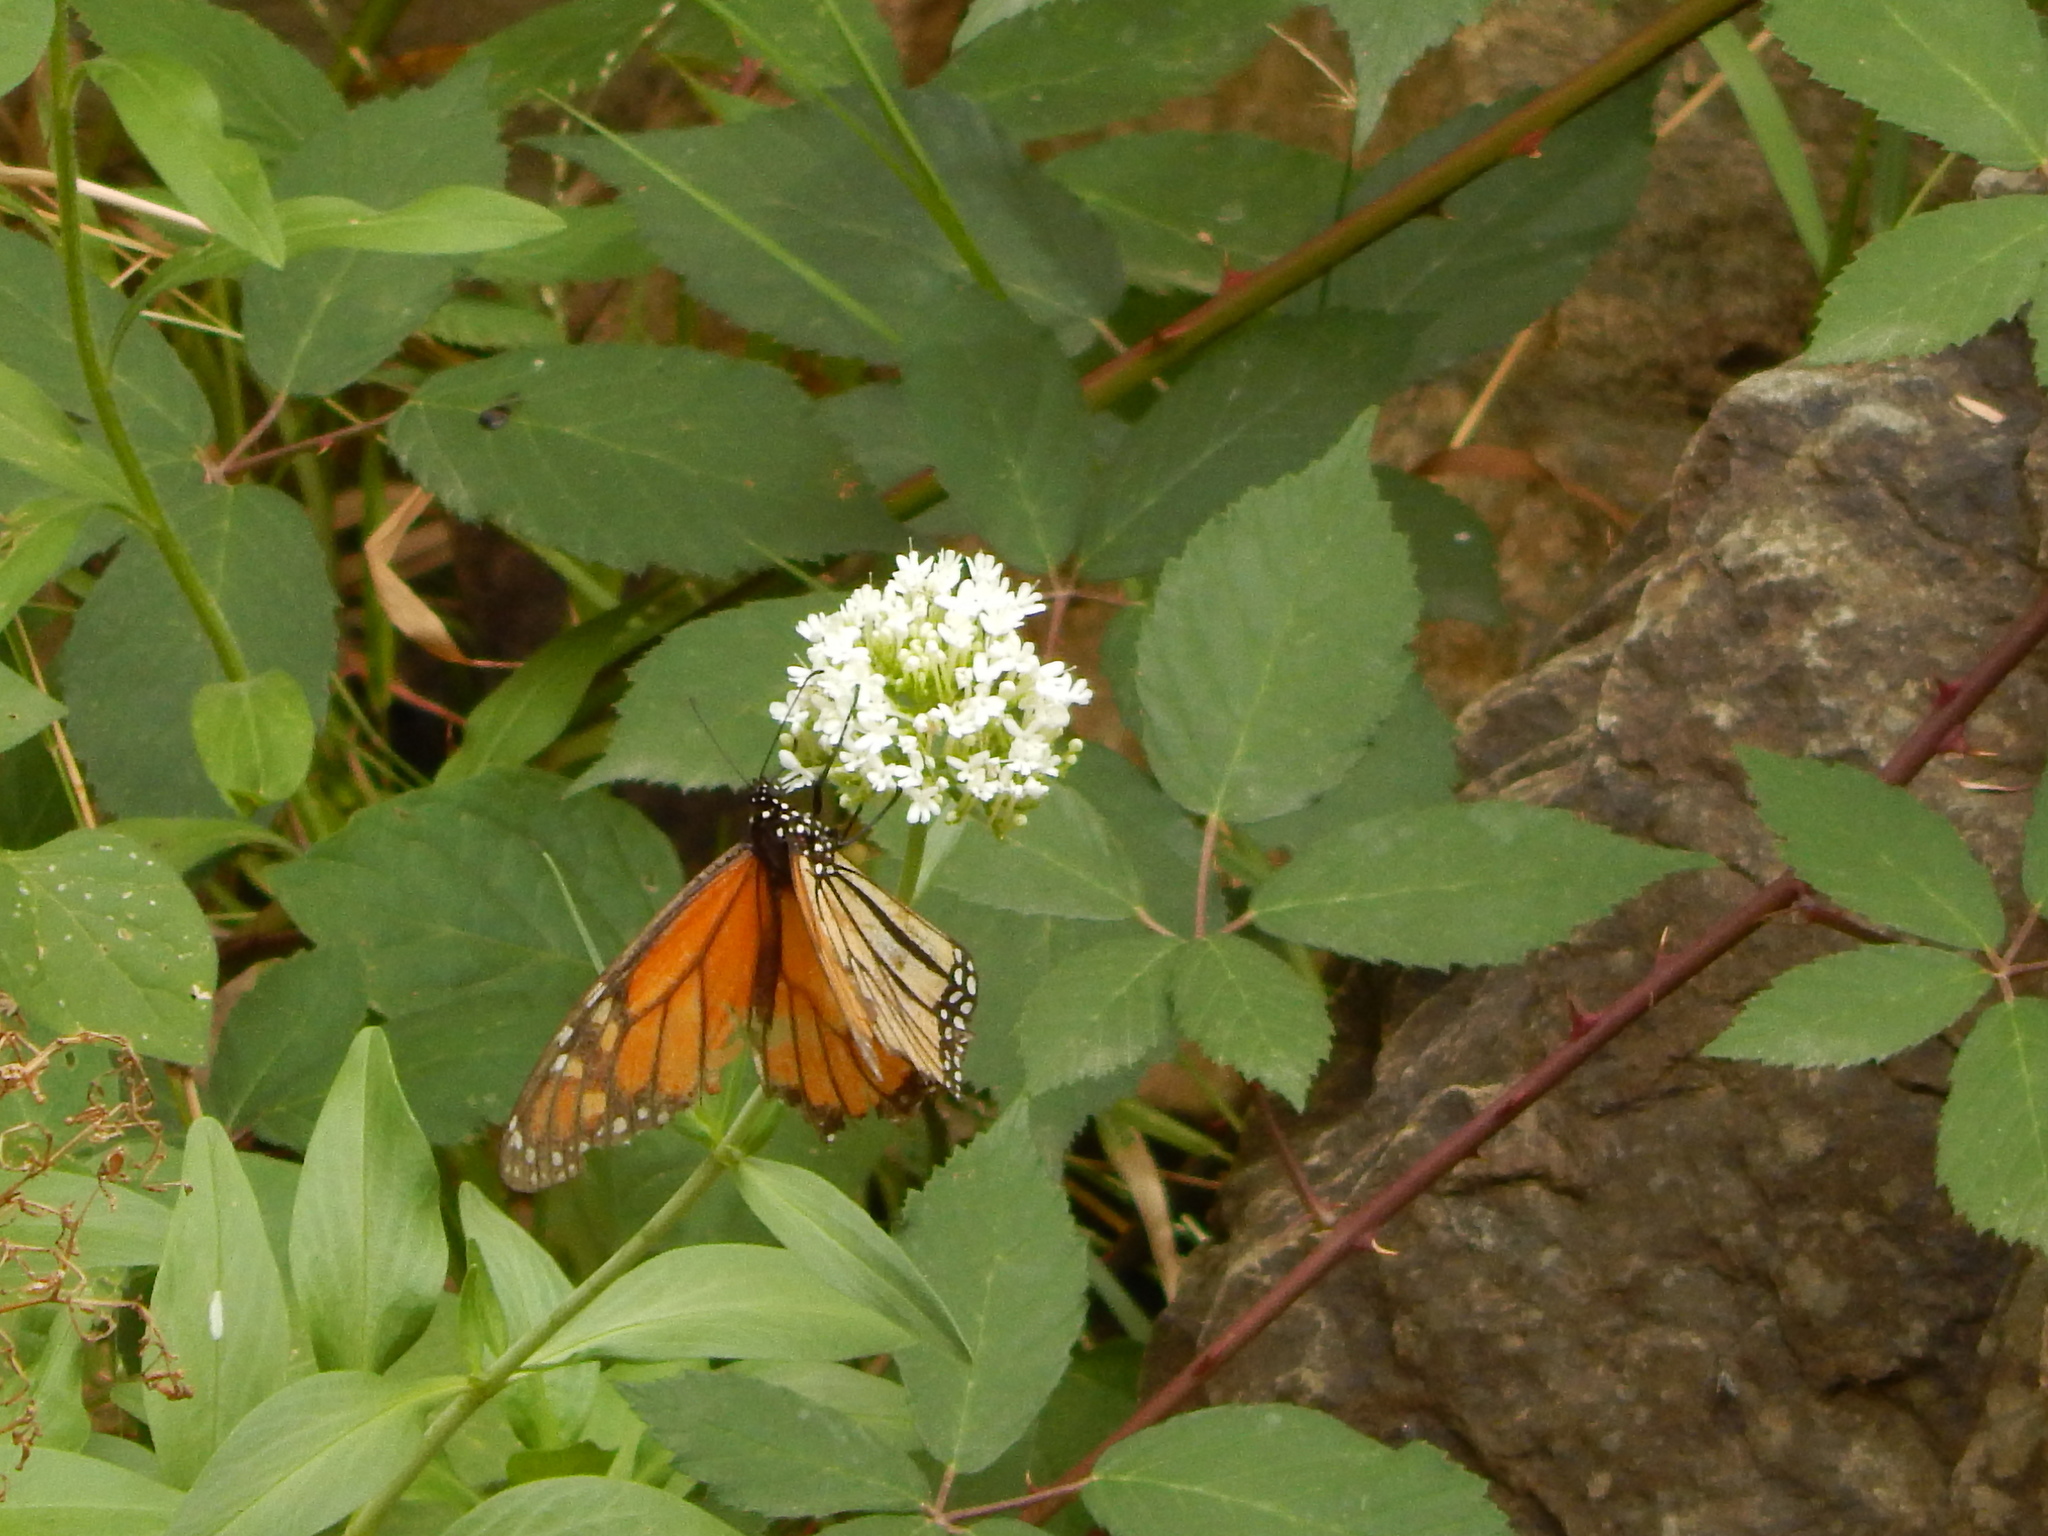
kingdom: Animalia
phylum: Arthropoda
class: Insecta
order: Lepidoptera
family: Nymphalidae
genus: Danaus
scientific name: Danaus plexippus
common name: Monarch
